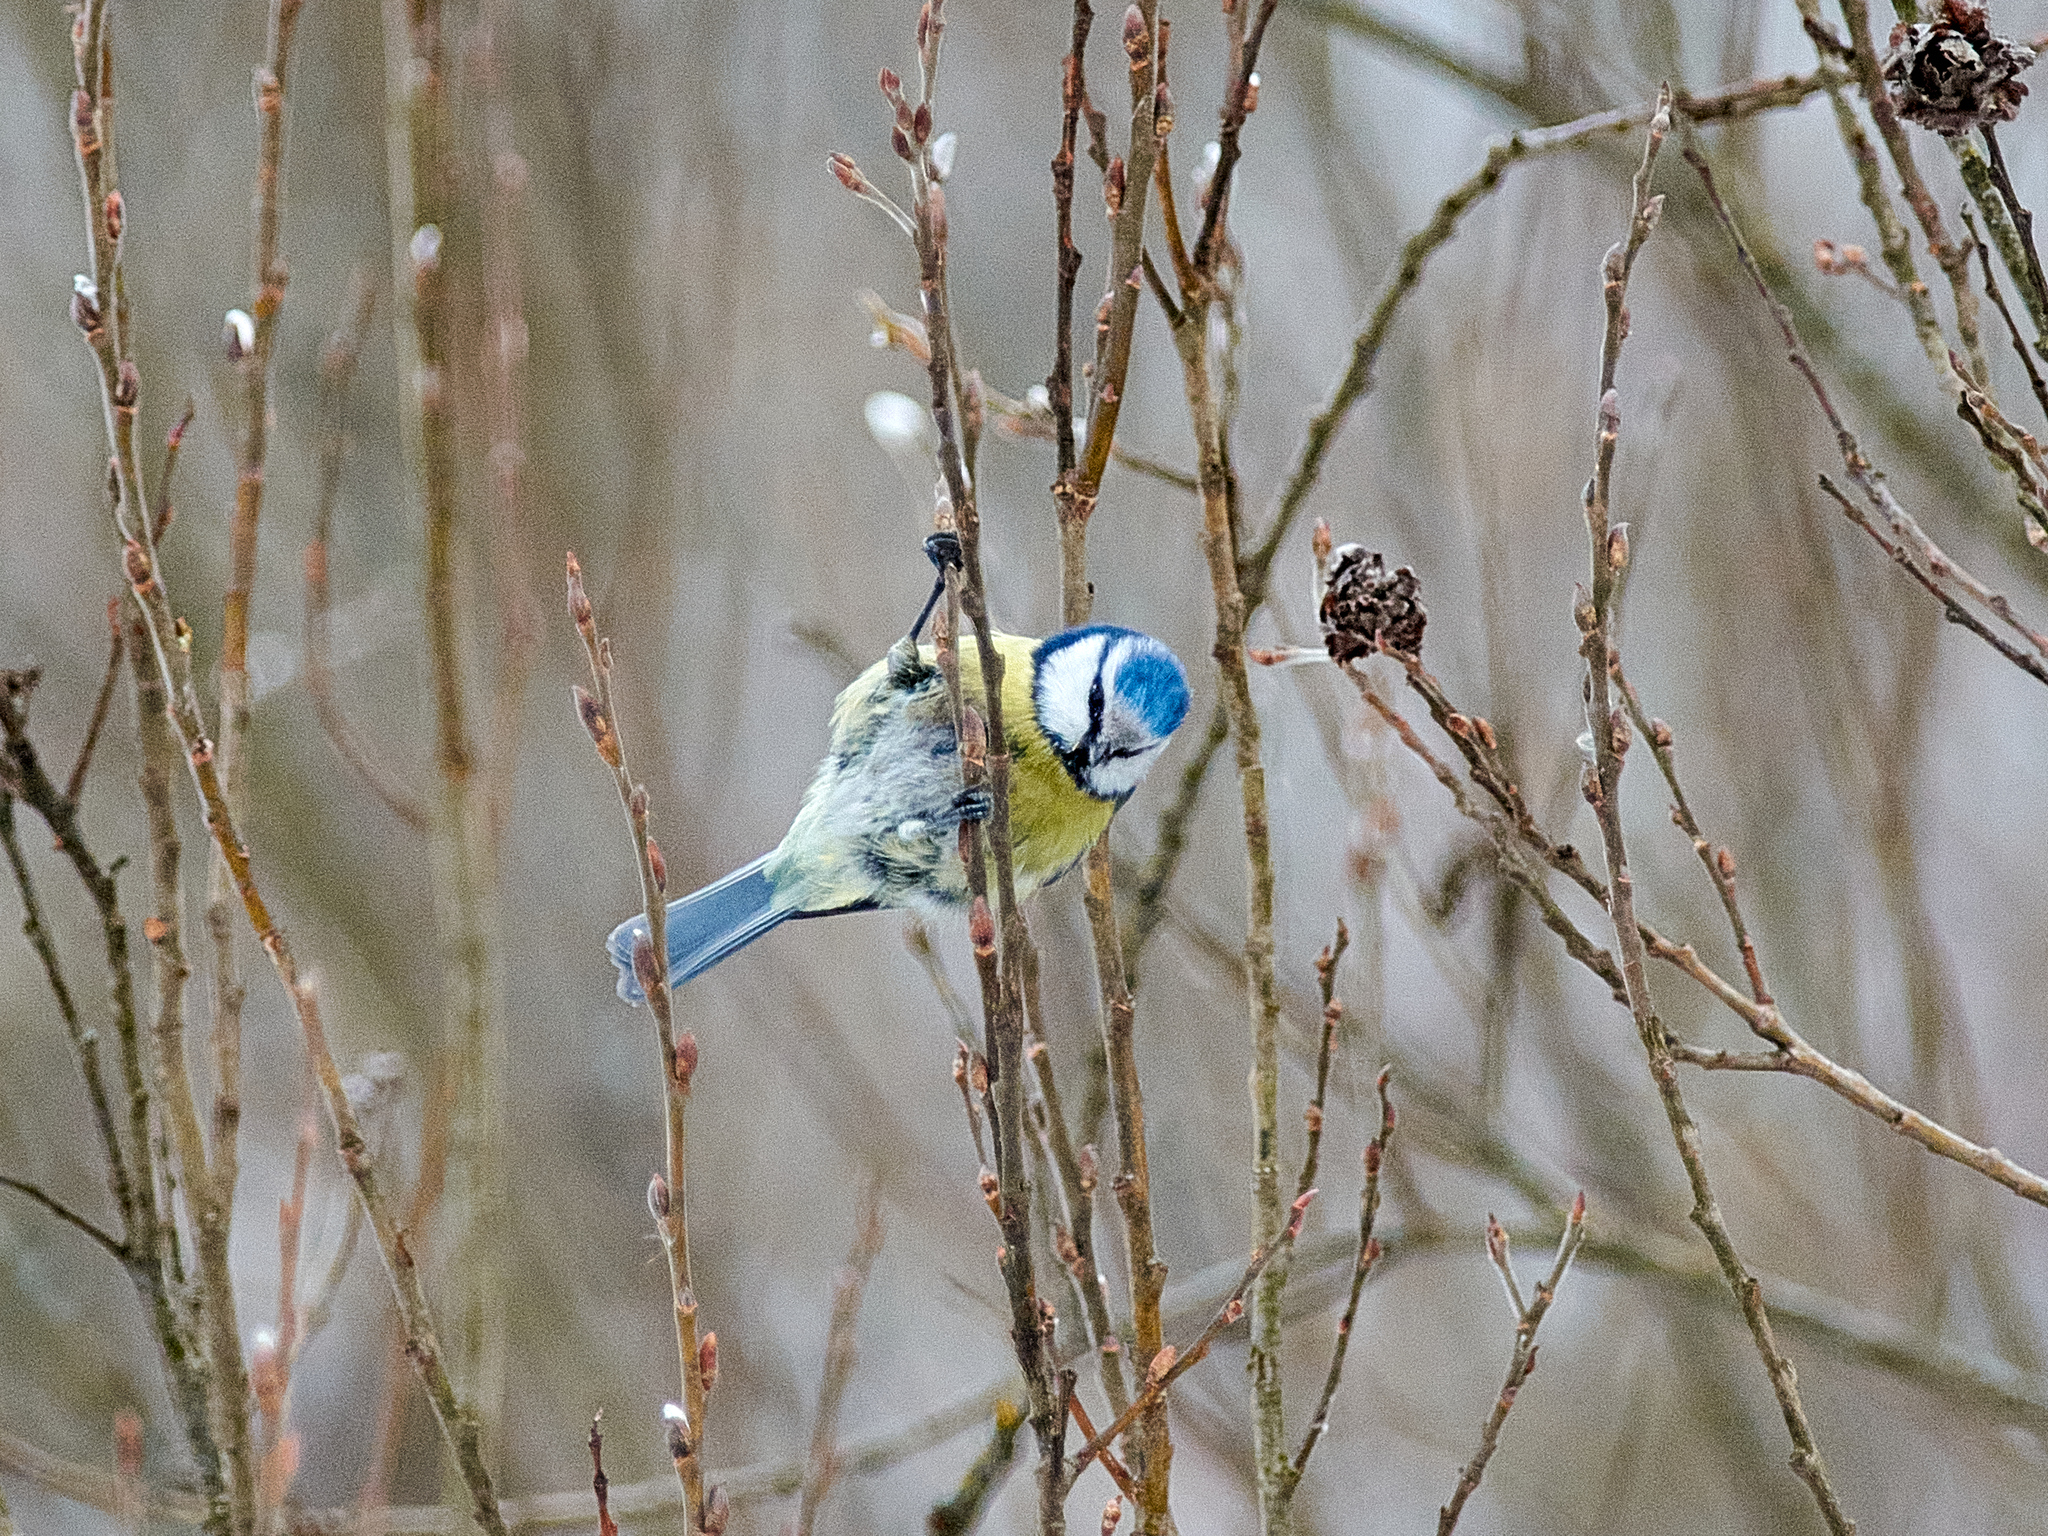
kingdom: Animalia
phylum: Chordata
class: Aves
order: Passeriformes
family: Paridae
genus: Cyanistes
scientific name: Cyanistes caeruleus
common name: Eurasian blue tit
